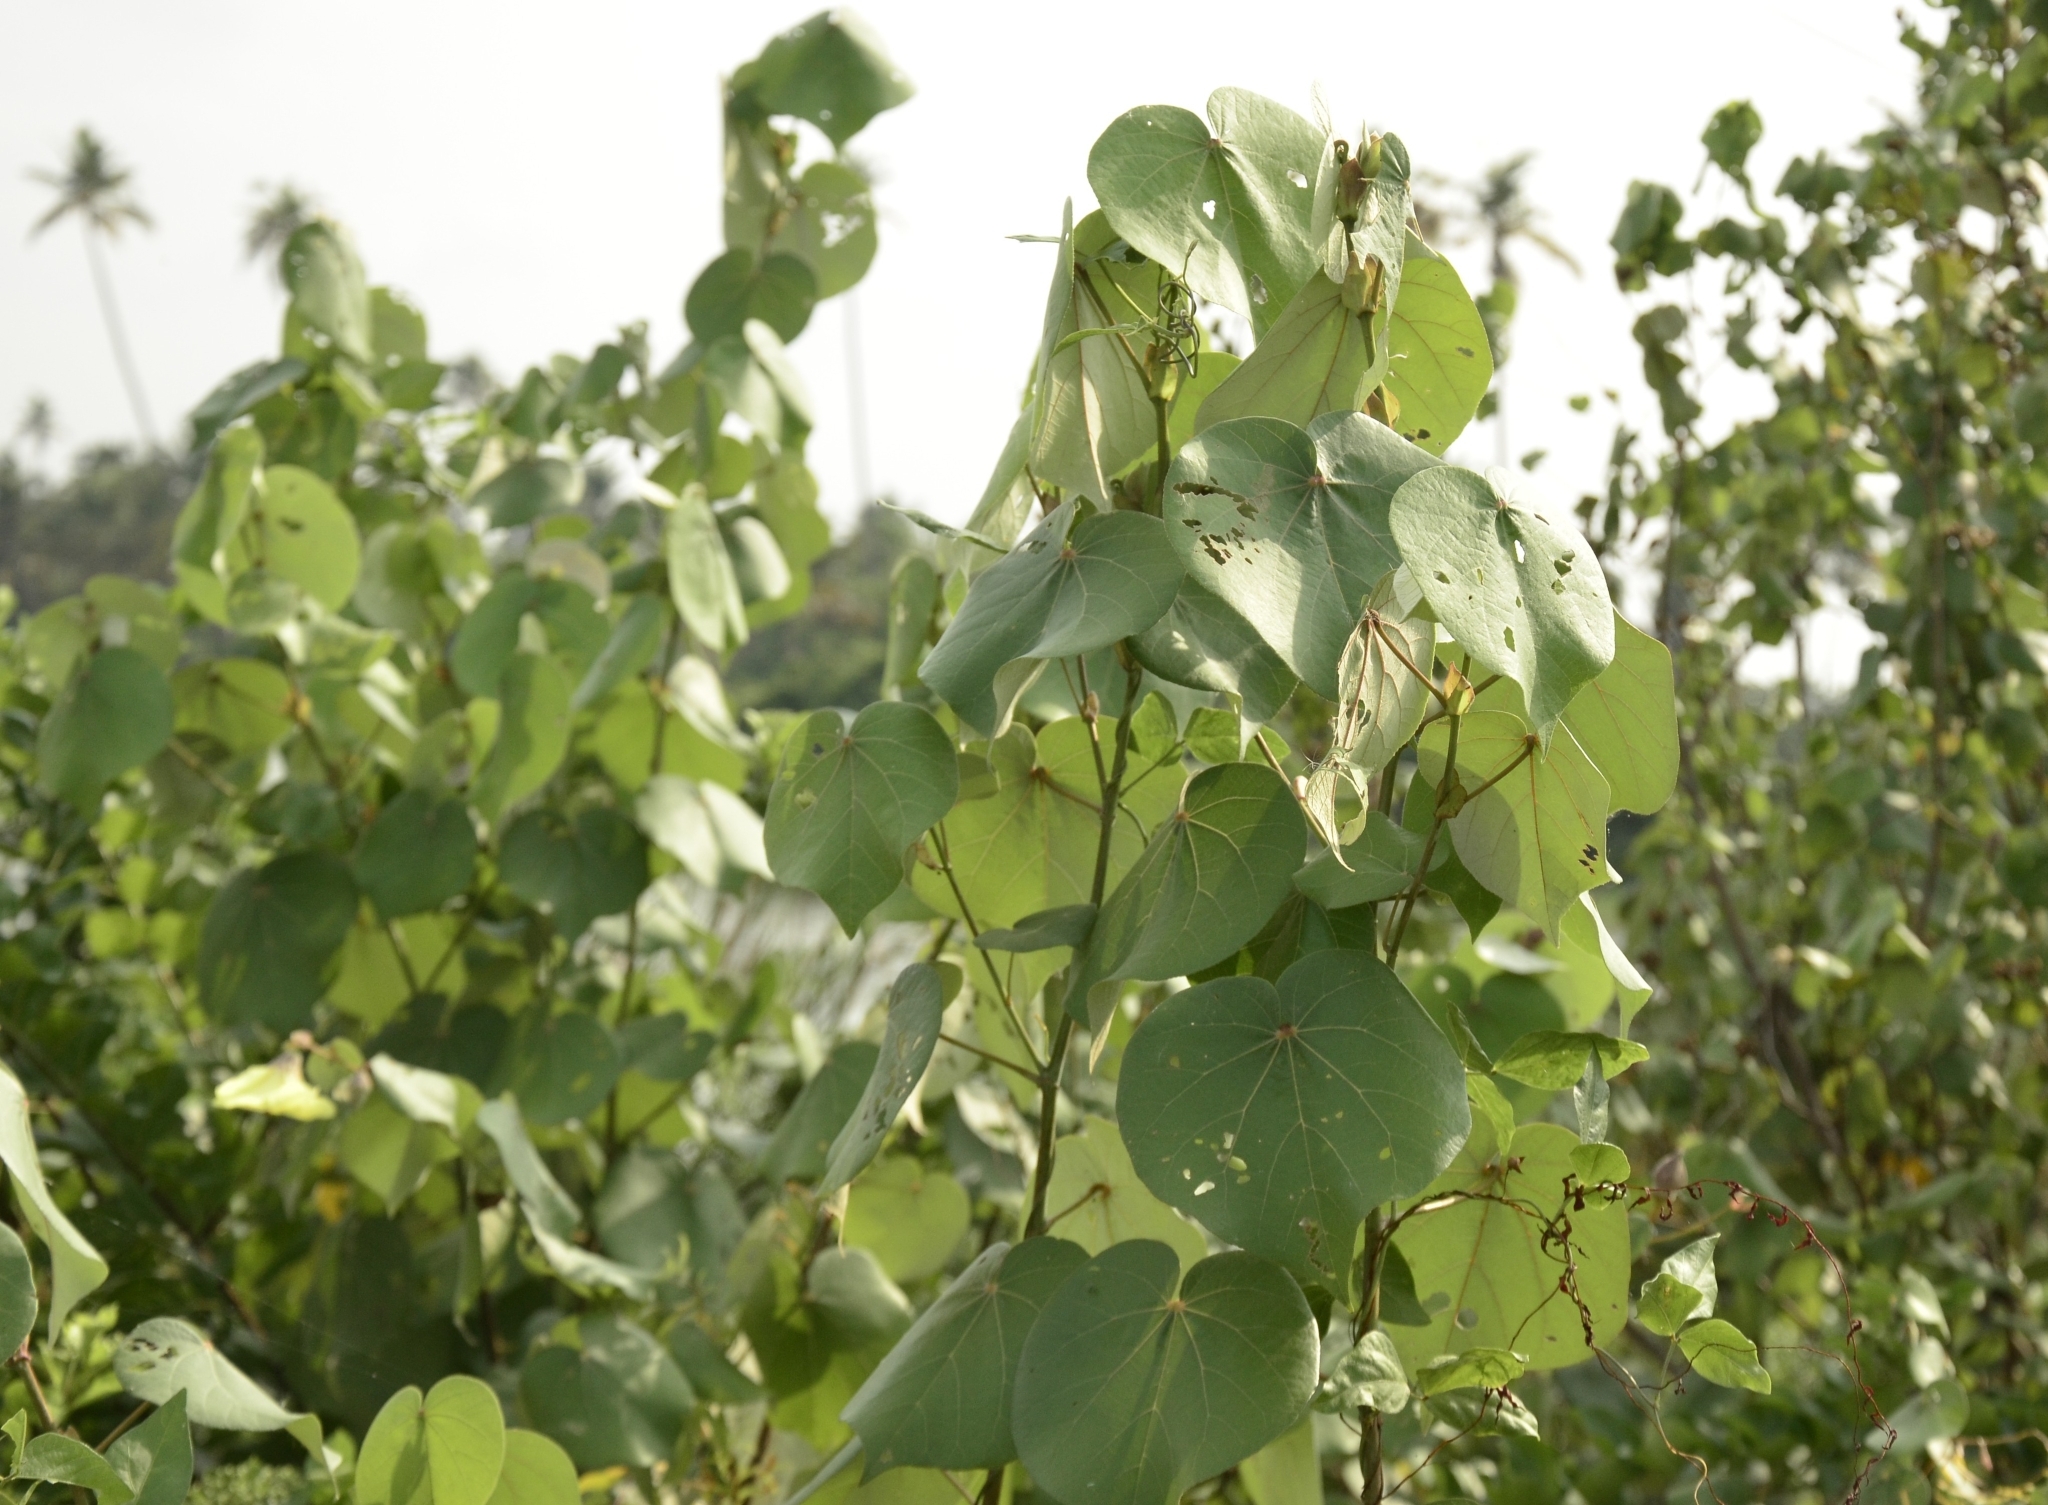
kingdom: Plantae
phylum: Tracheophyta
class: Magnoliopsida
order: Malvales
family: Malvaceae
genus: Talipariti
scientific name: Talipariti tiliaceum
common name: Sea hibiscus
